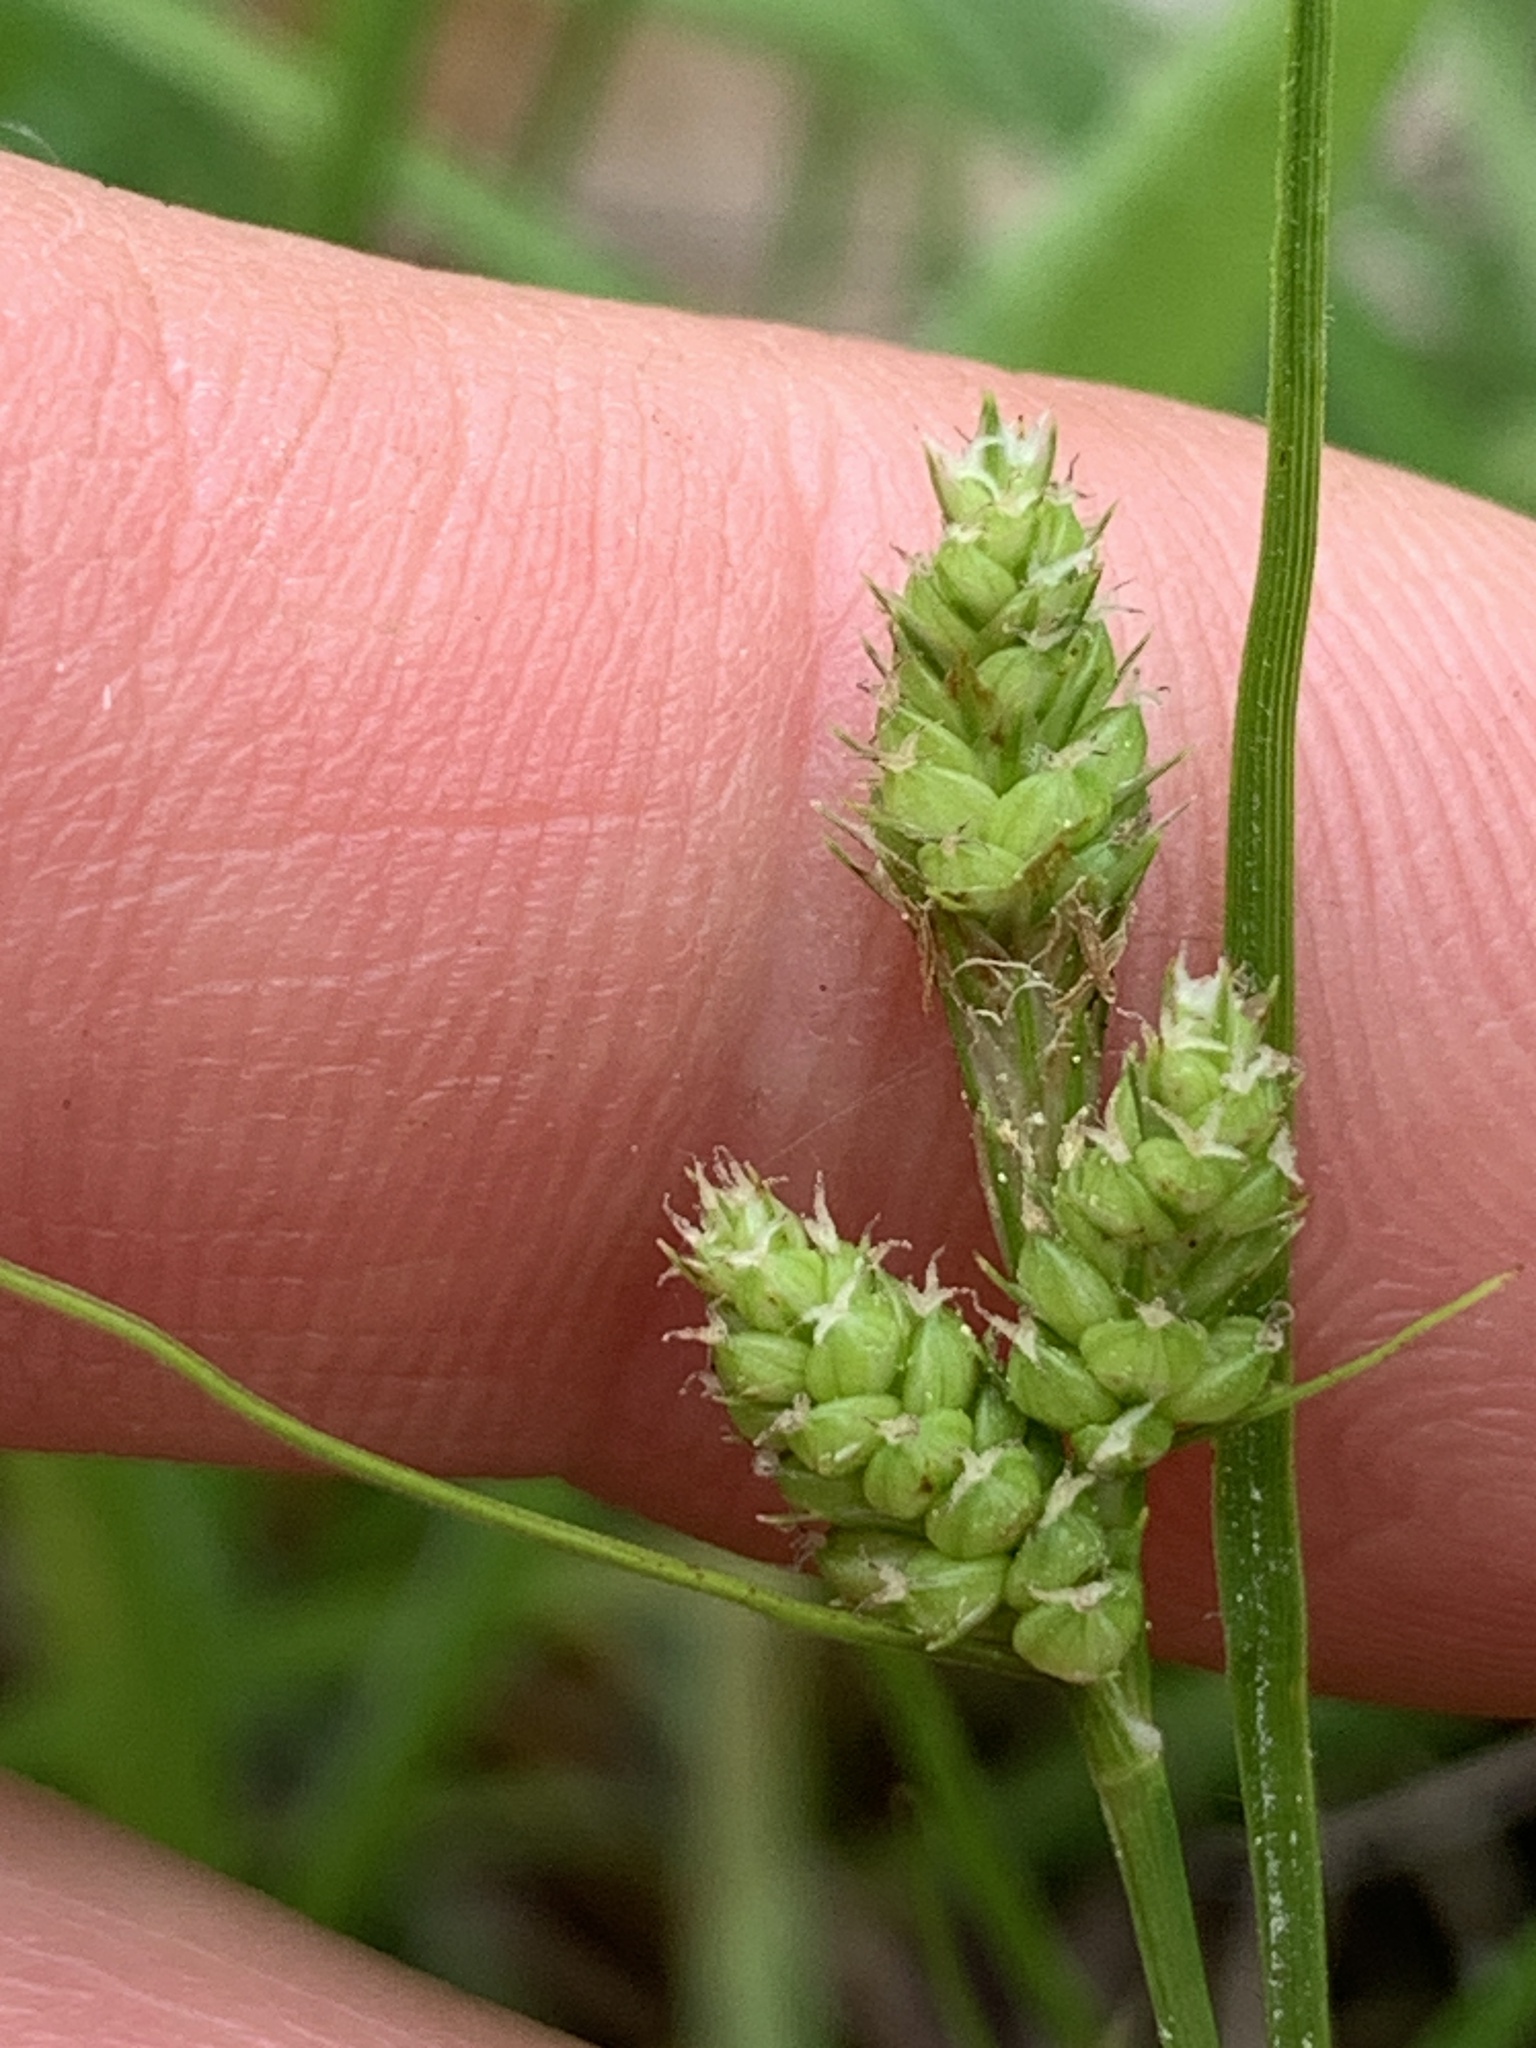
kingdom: Plantae
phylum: Tracheophyta
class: Liliopsida
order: Poales
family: Cyperaceae
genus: Carex
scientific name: Carex hirsutella
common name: Fuzzy wuzzy sedge
